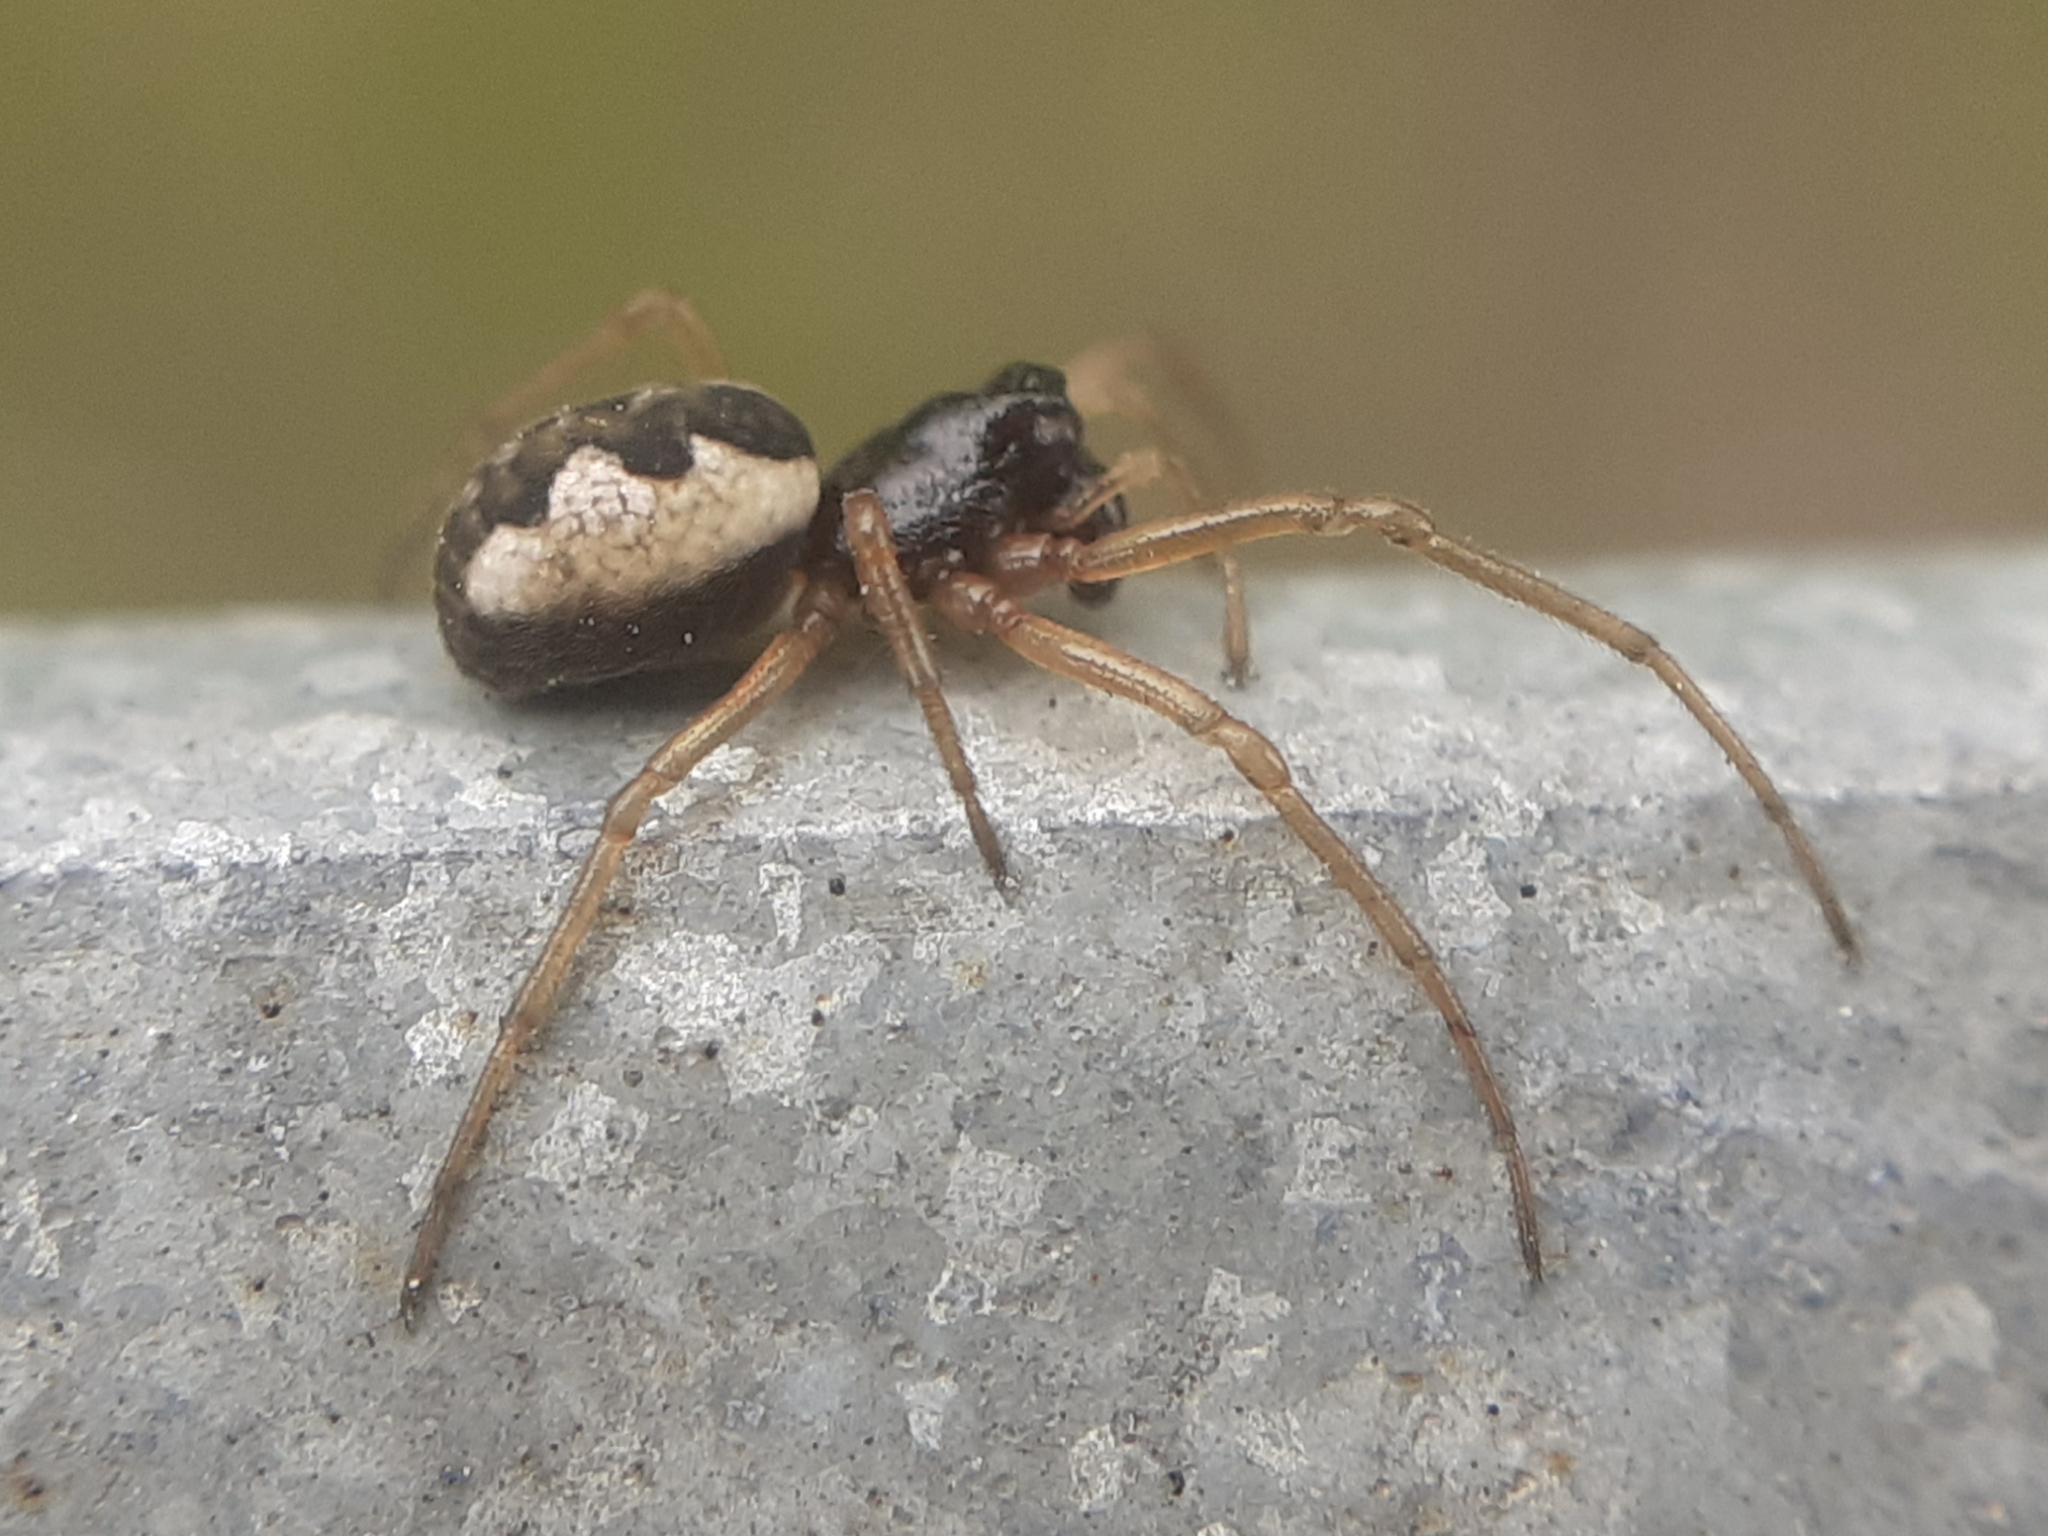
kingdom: Animalia
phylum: Arthropoda
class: Arachnida
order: Araneae
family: Tetragnathidae
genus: Pachygnatha
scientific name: Pachygnatha degeeri
